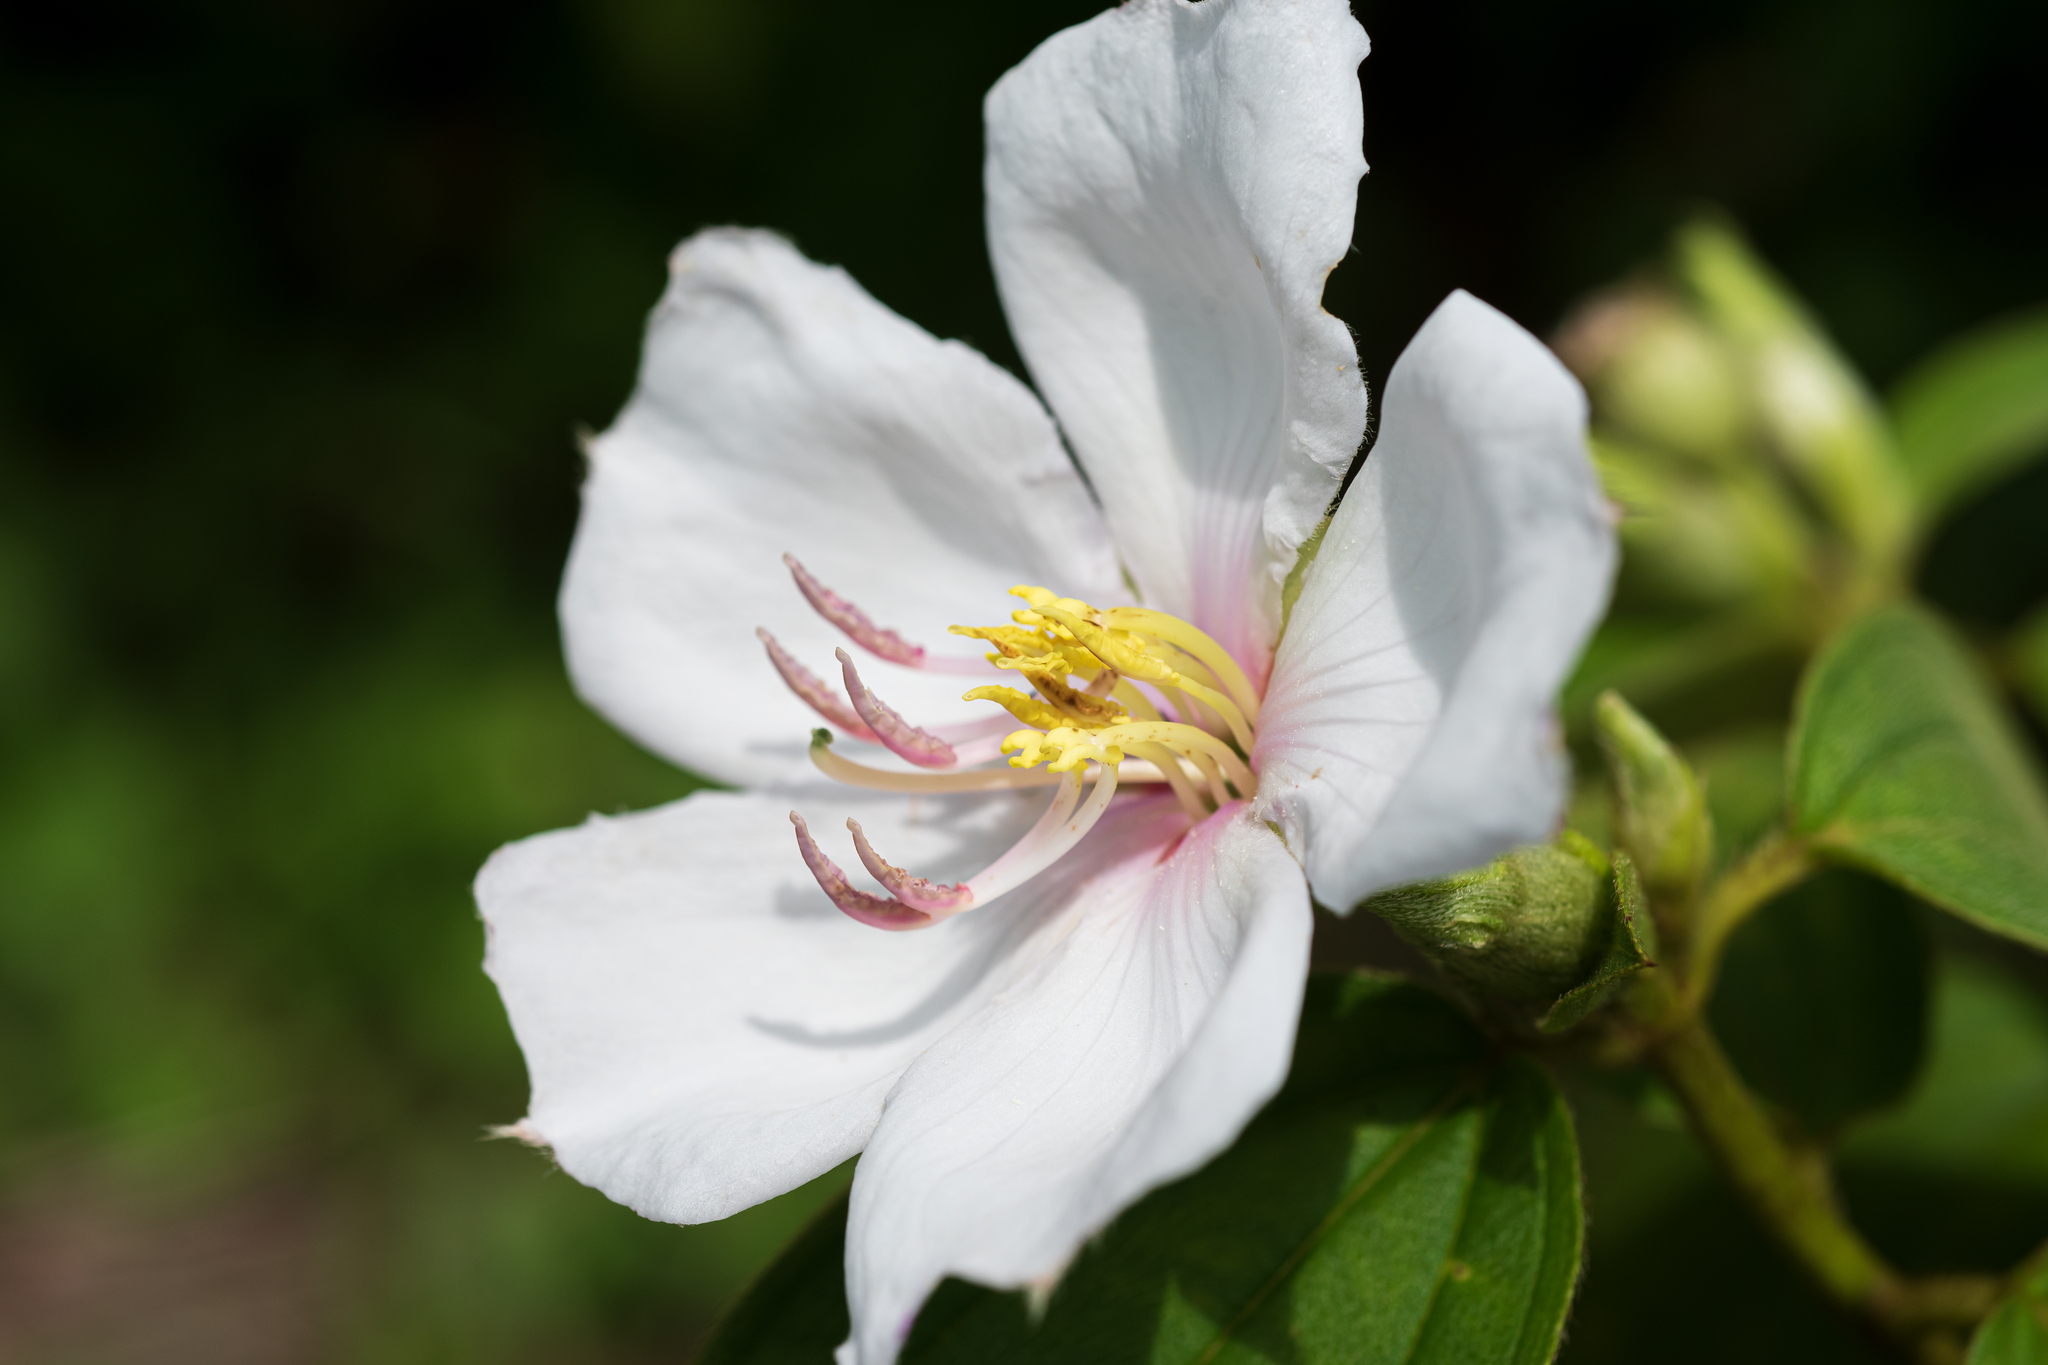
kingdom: Plantae
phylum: Tracheophyta
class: Magnoliopsida
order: Myrtales
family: Melastomataceae
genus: Melastoma
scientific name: Melastoma malabathricum
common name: Indian-rhododendron
